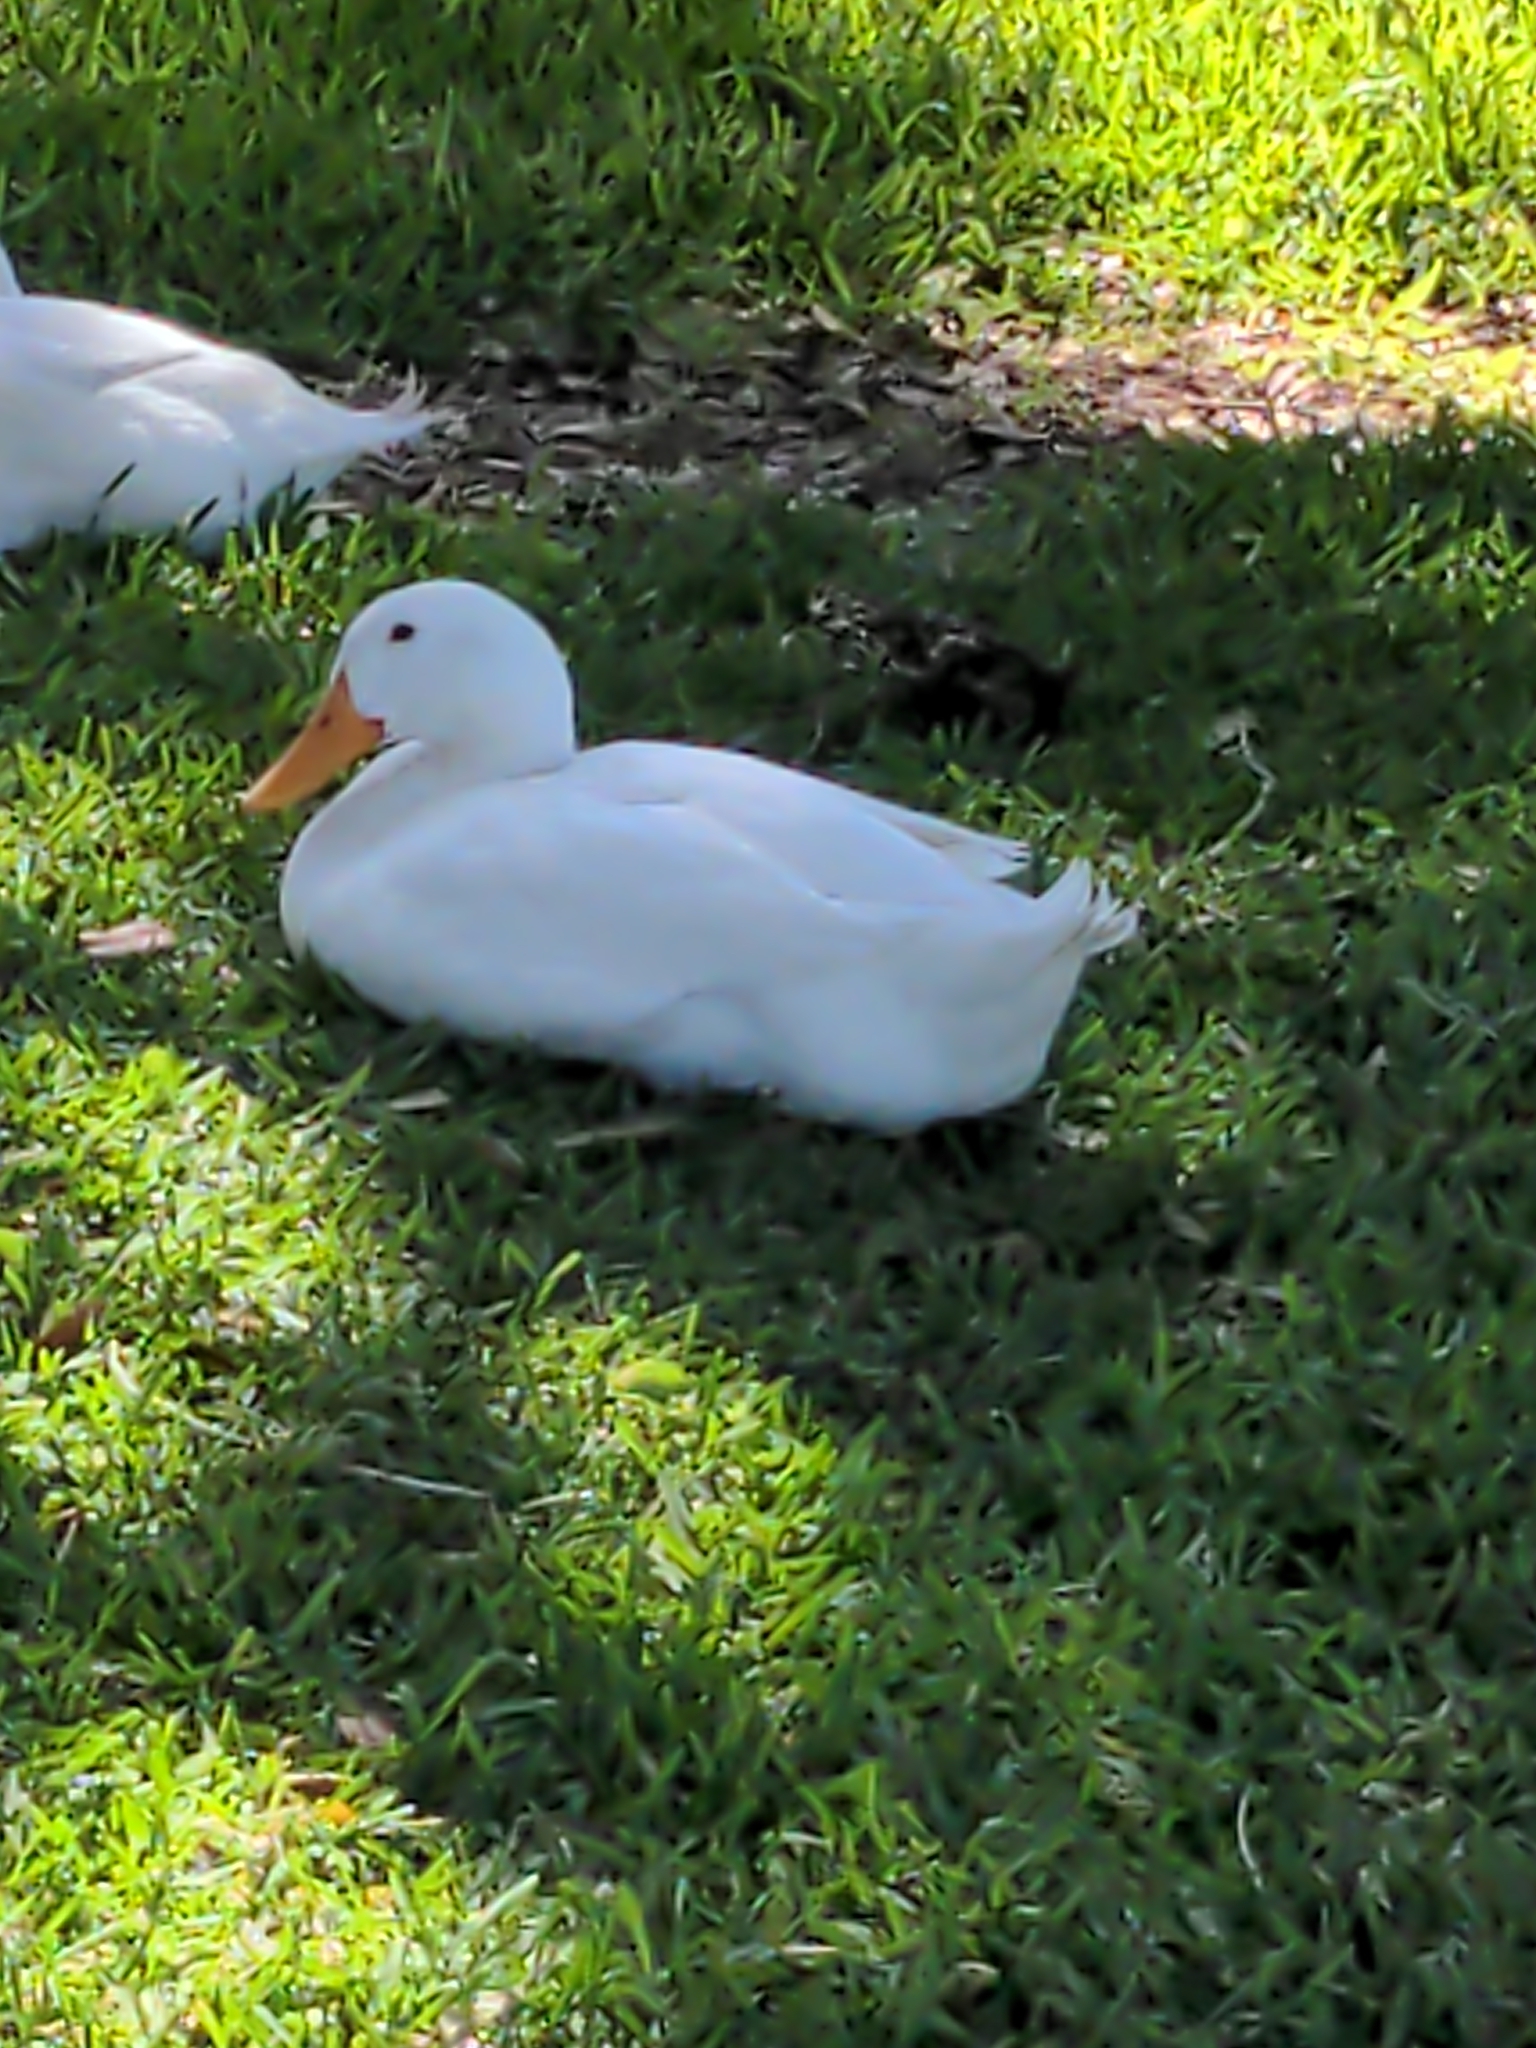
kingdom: Animalia
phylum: Chordata
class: Aves
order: Anseriformes
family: Anatidae
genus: Anas
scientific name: Anas platyrhynchos
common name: Mallard
